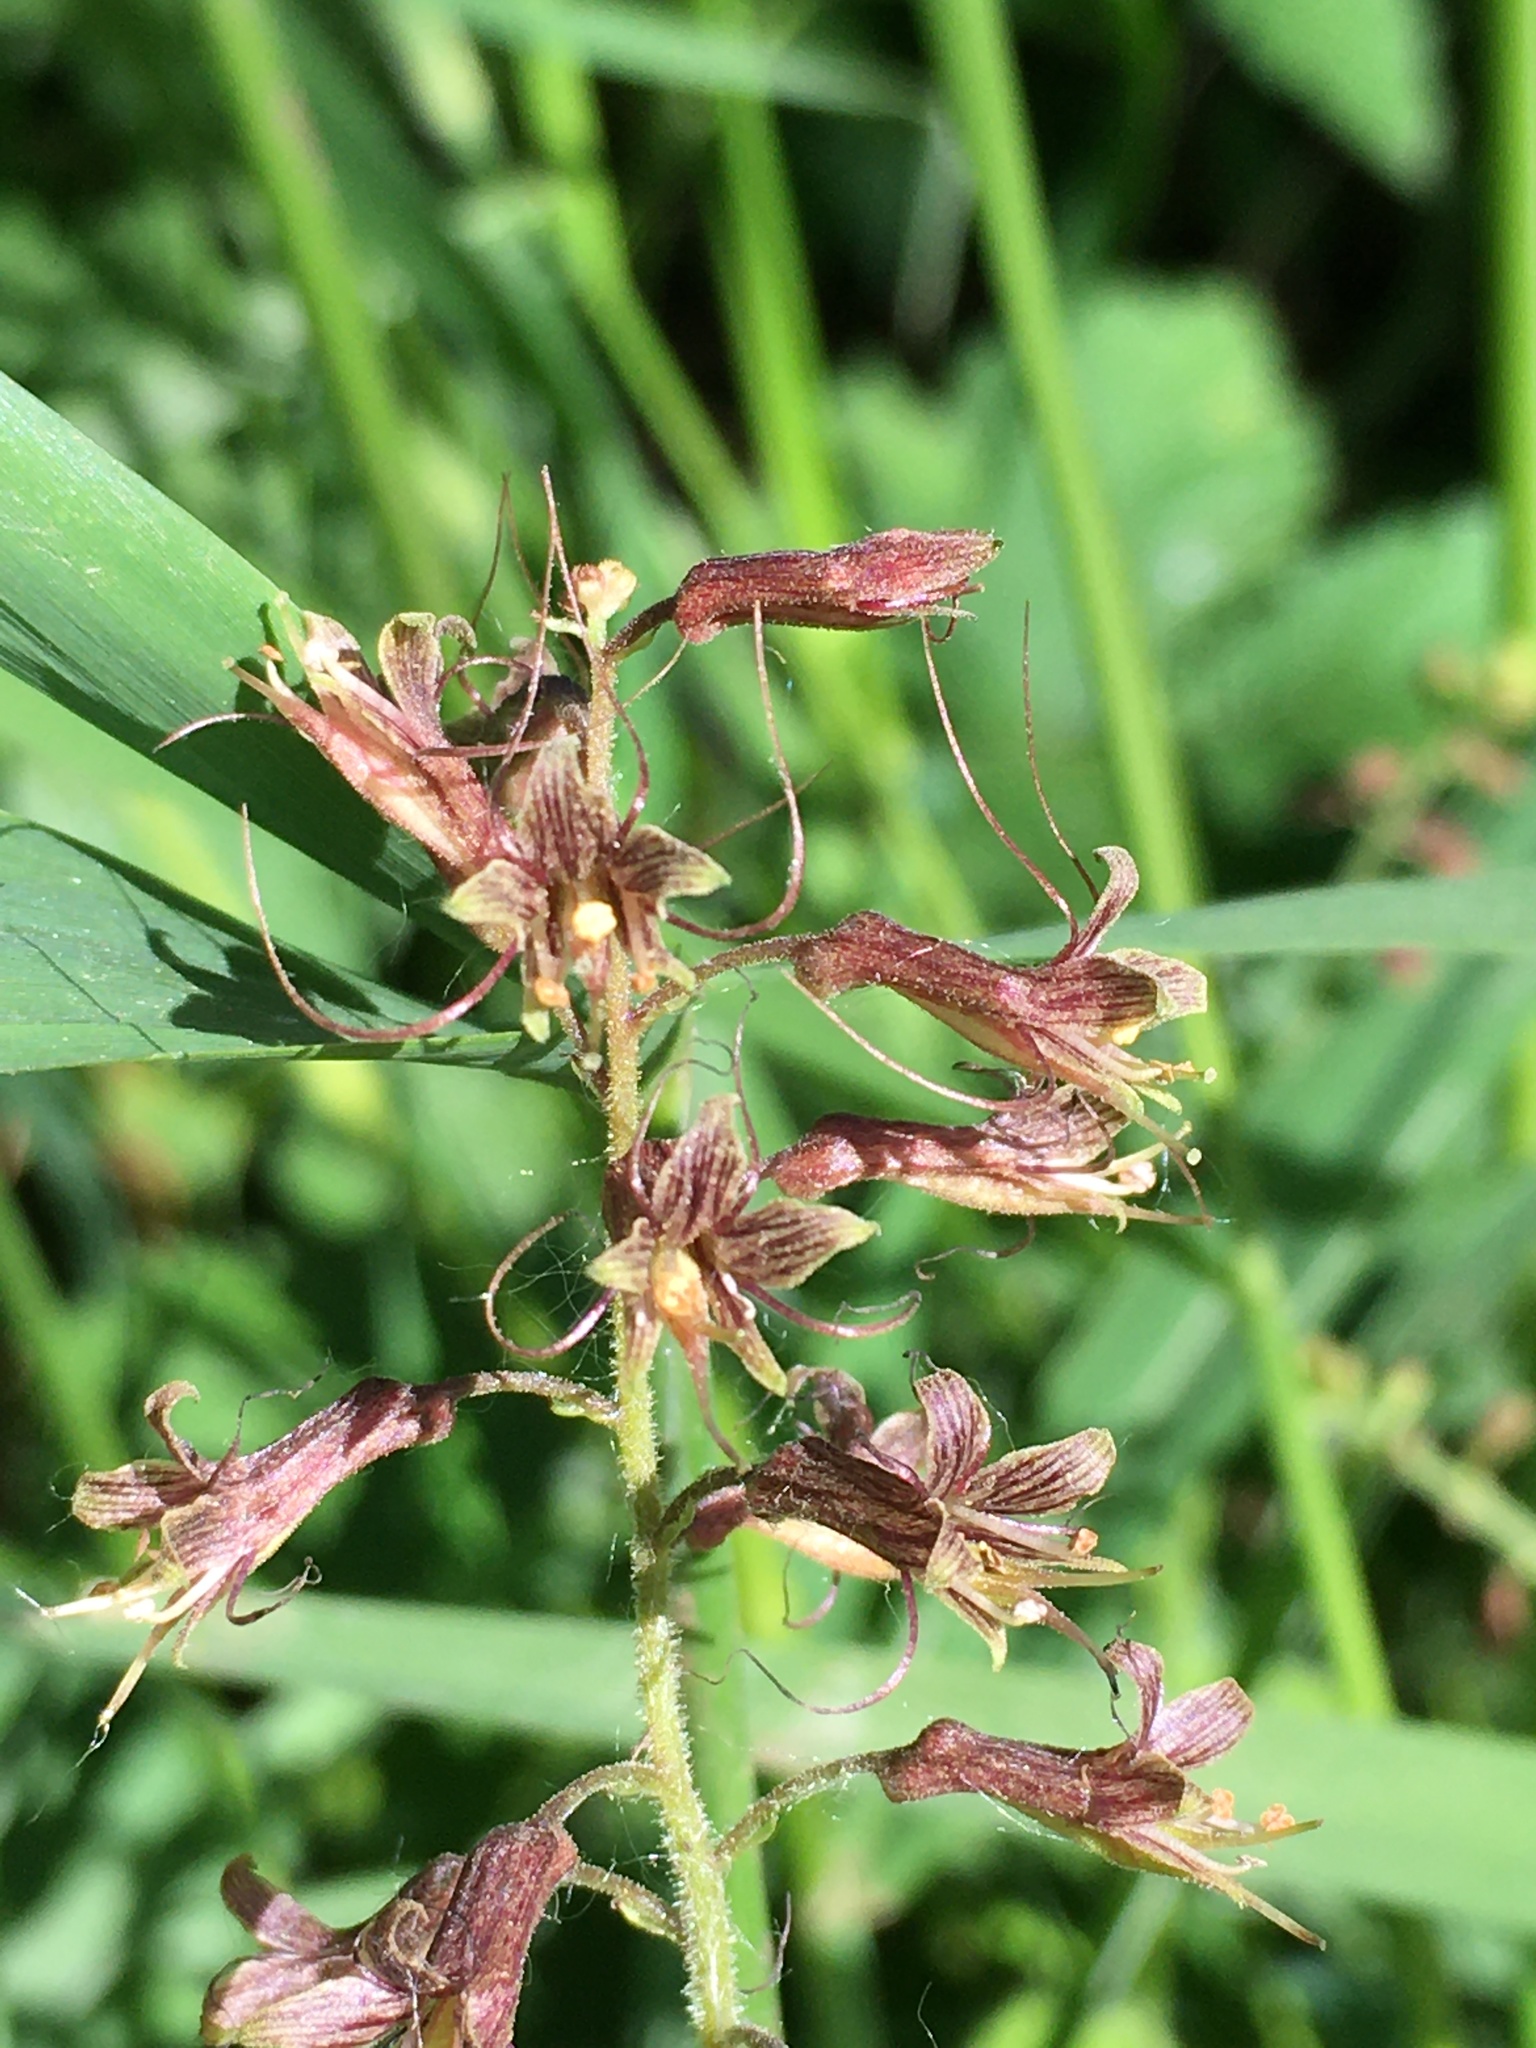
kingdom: Plantae
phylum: Tracheophyta
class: Magnoliopsida
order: Saxifragales
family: Saxifragaceae
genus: Tolmiea
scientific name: Tolmiea menziesii
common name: Pick-a-back-plant
